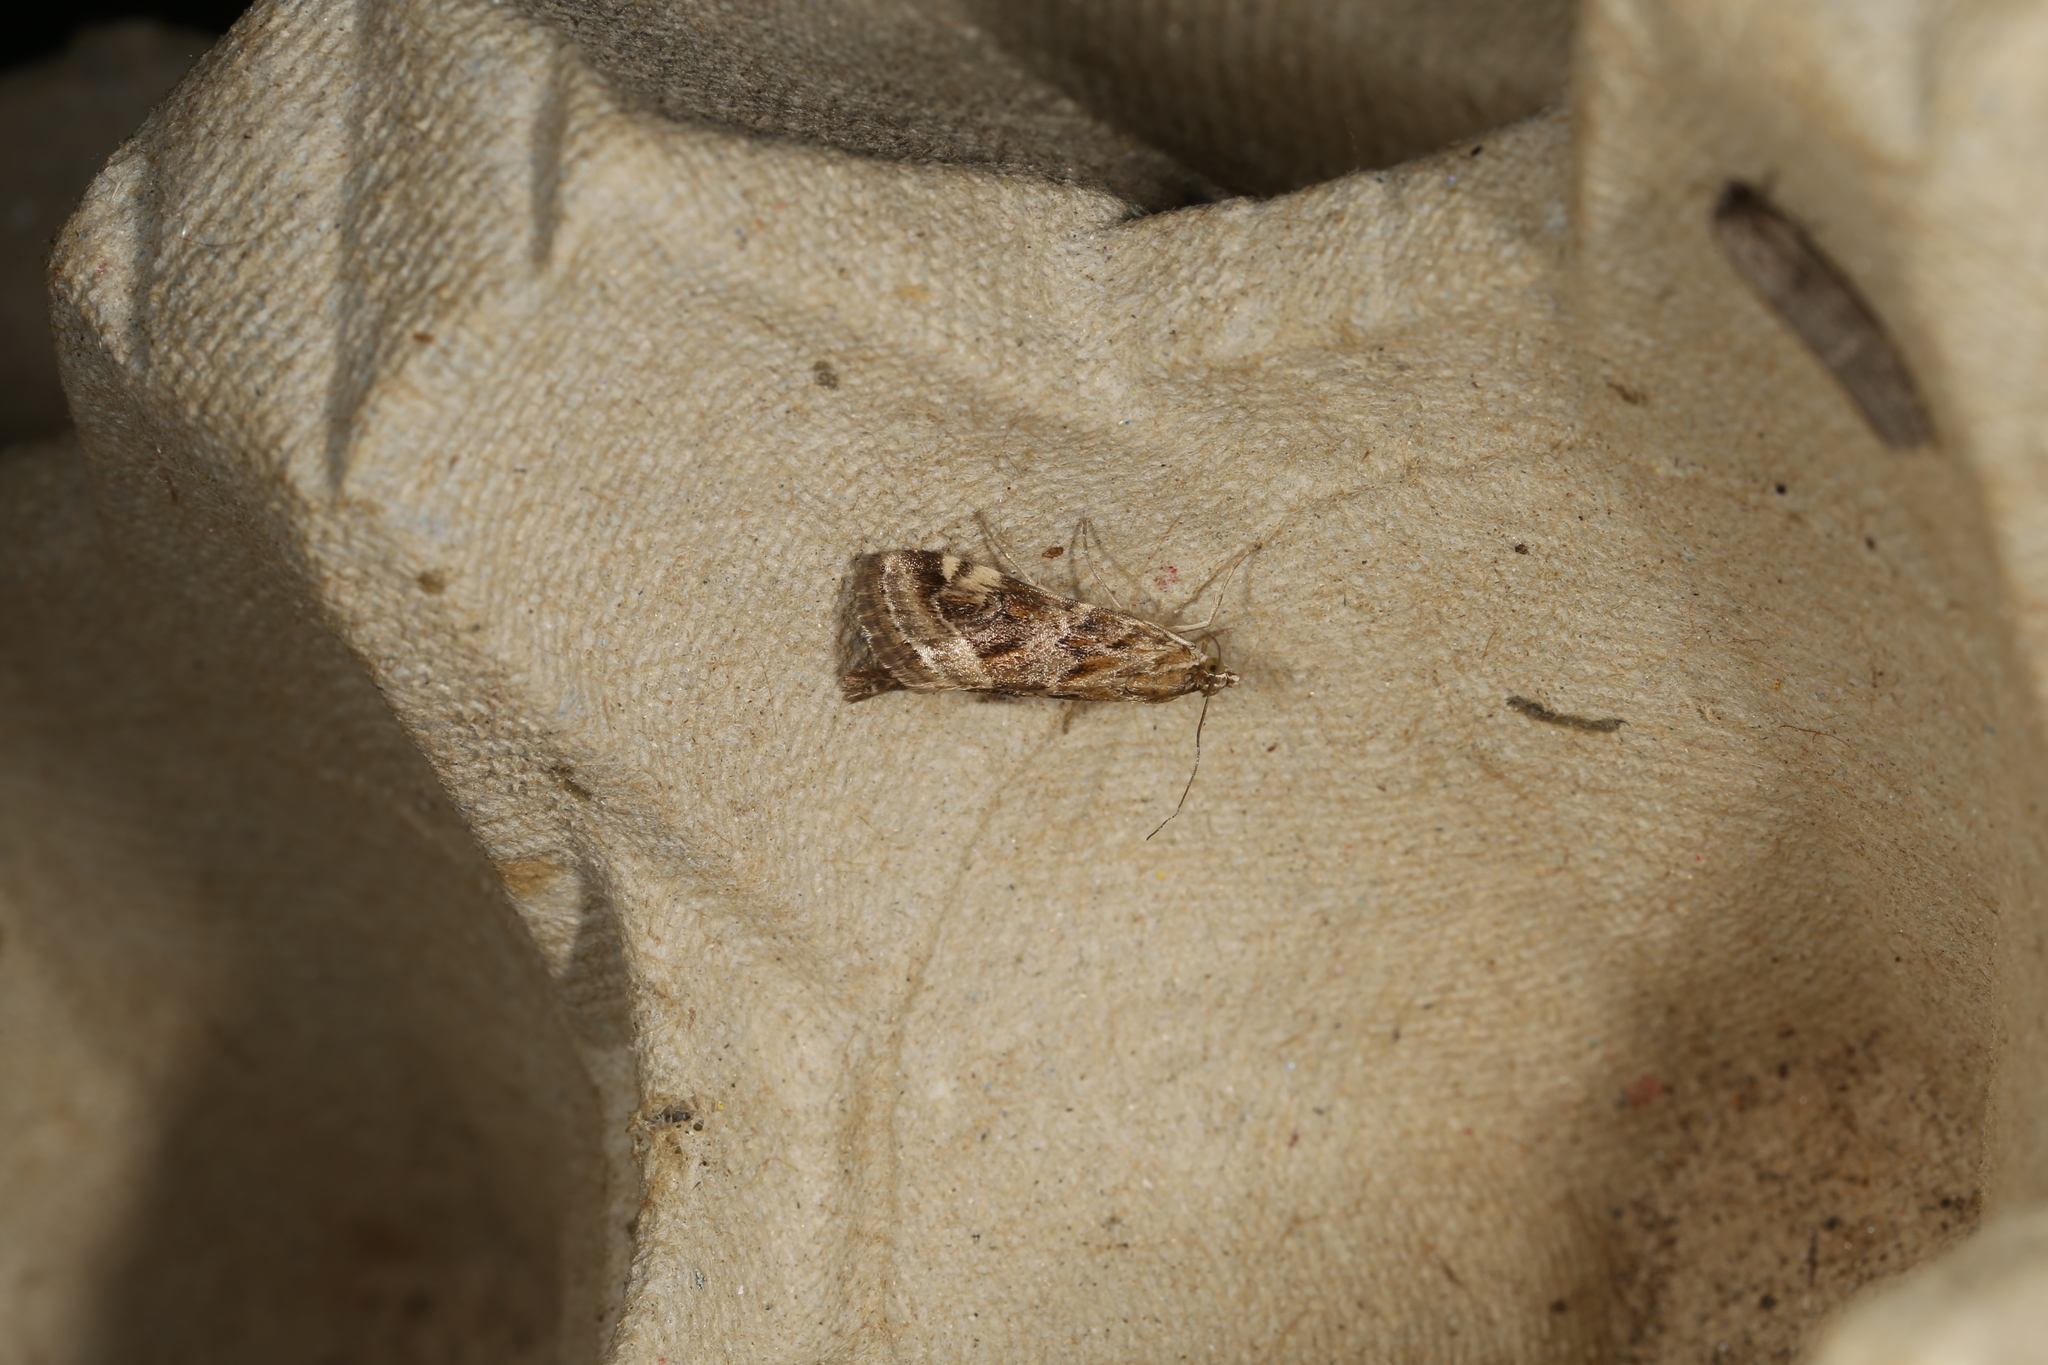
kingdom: Animalia
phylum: Arthropoda
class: Insecta
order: Lepidoptera
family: Crambidae
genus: Hellula
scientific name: Hellula hydralis
